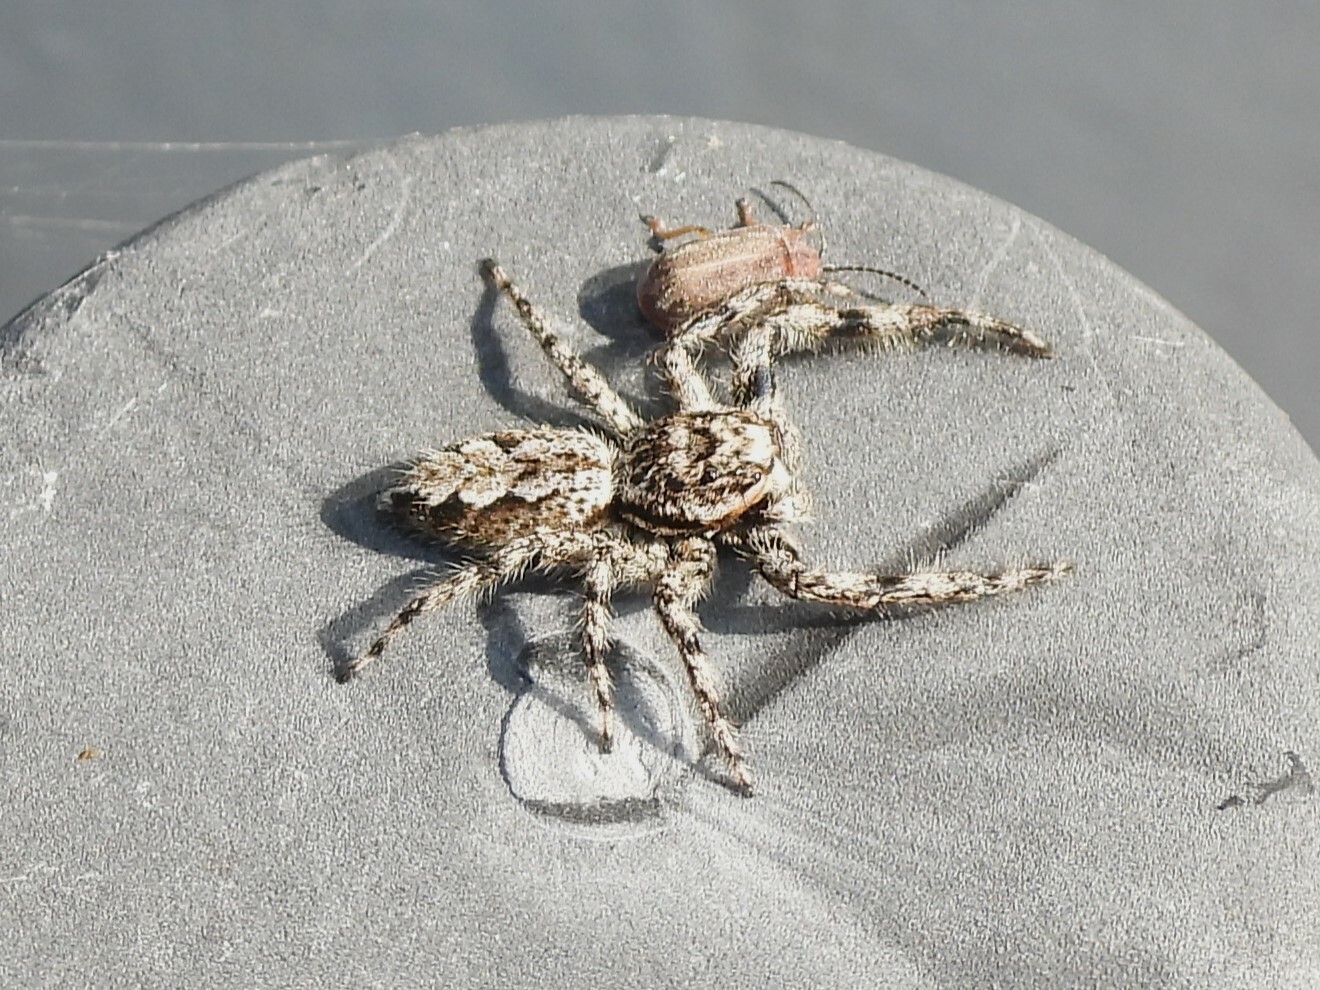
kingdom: Animalia
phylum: Arthropoda
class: Arachnida
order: Araneae
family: Salticidae
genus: Platycryptus
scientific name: Platycryptus undatus
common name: Tan jumping spider
